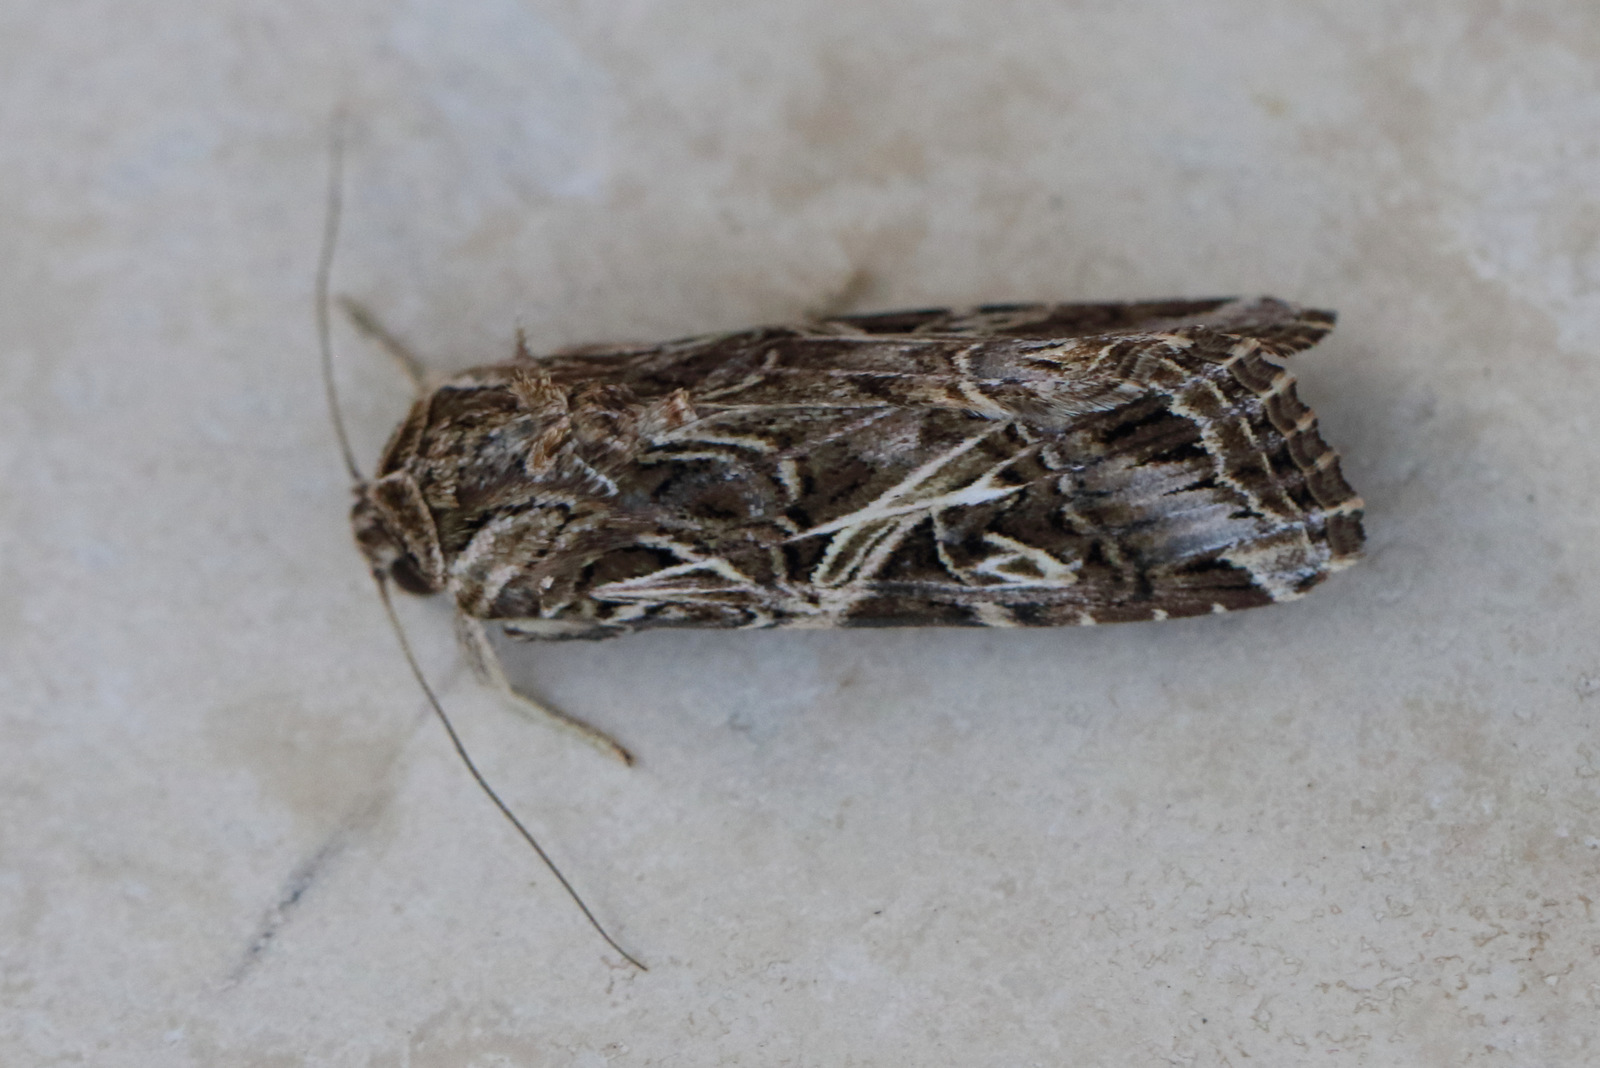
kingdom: Animalia
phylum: Arthropoda
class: Insecta
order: Lepidoptera
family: Noctuidae
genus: Spodoptera
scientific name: Spodoptera litura
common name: Asian cotton leafworm
